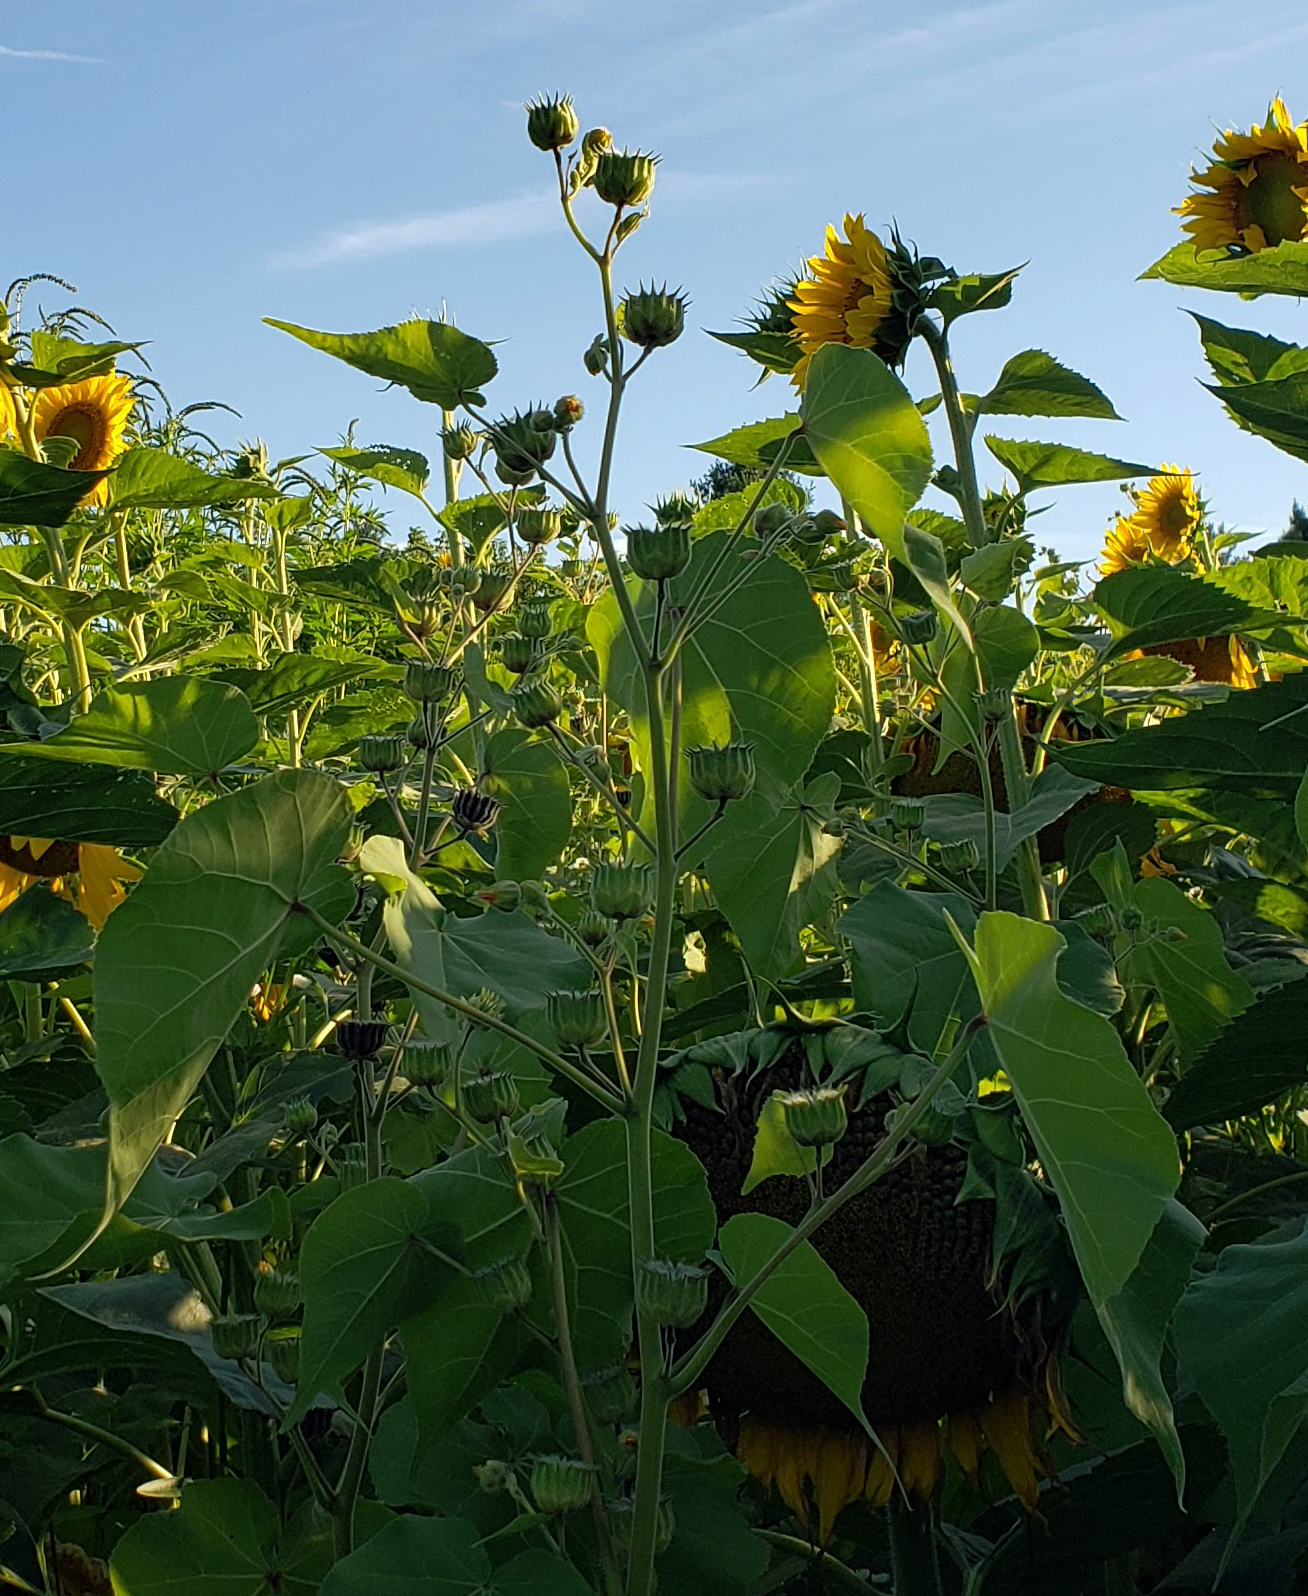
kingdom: Plantae
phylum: Tracheophyta
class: Magnoliopsida
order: Malvales
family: Malvaceae
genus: Abutilon
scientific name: Abutilon theophrasti
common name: Velvetleaf
